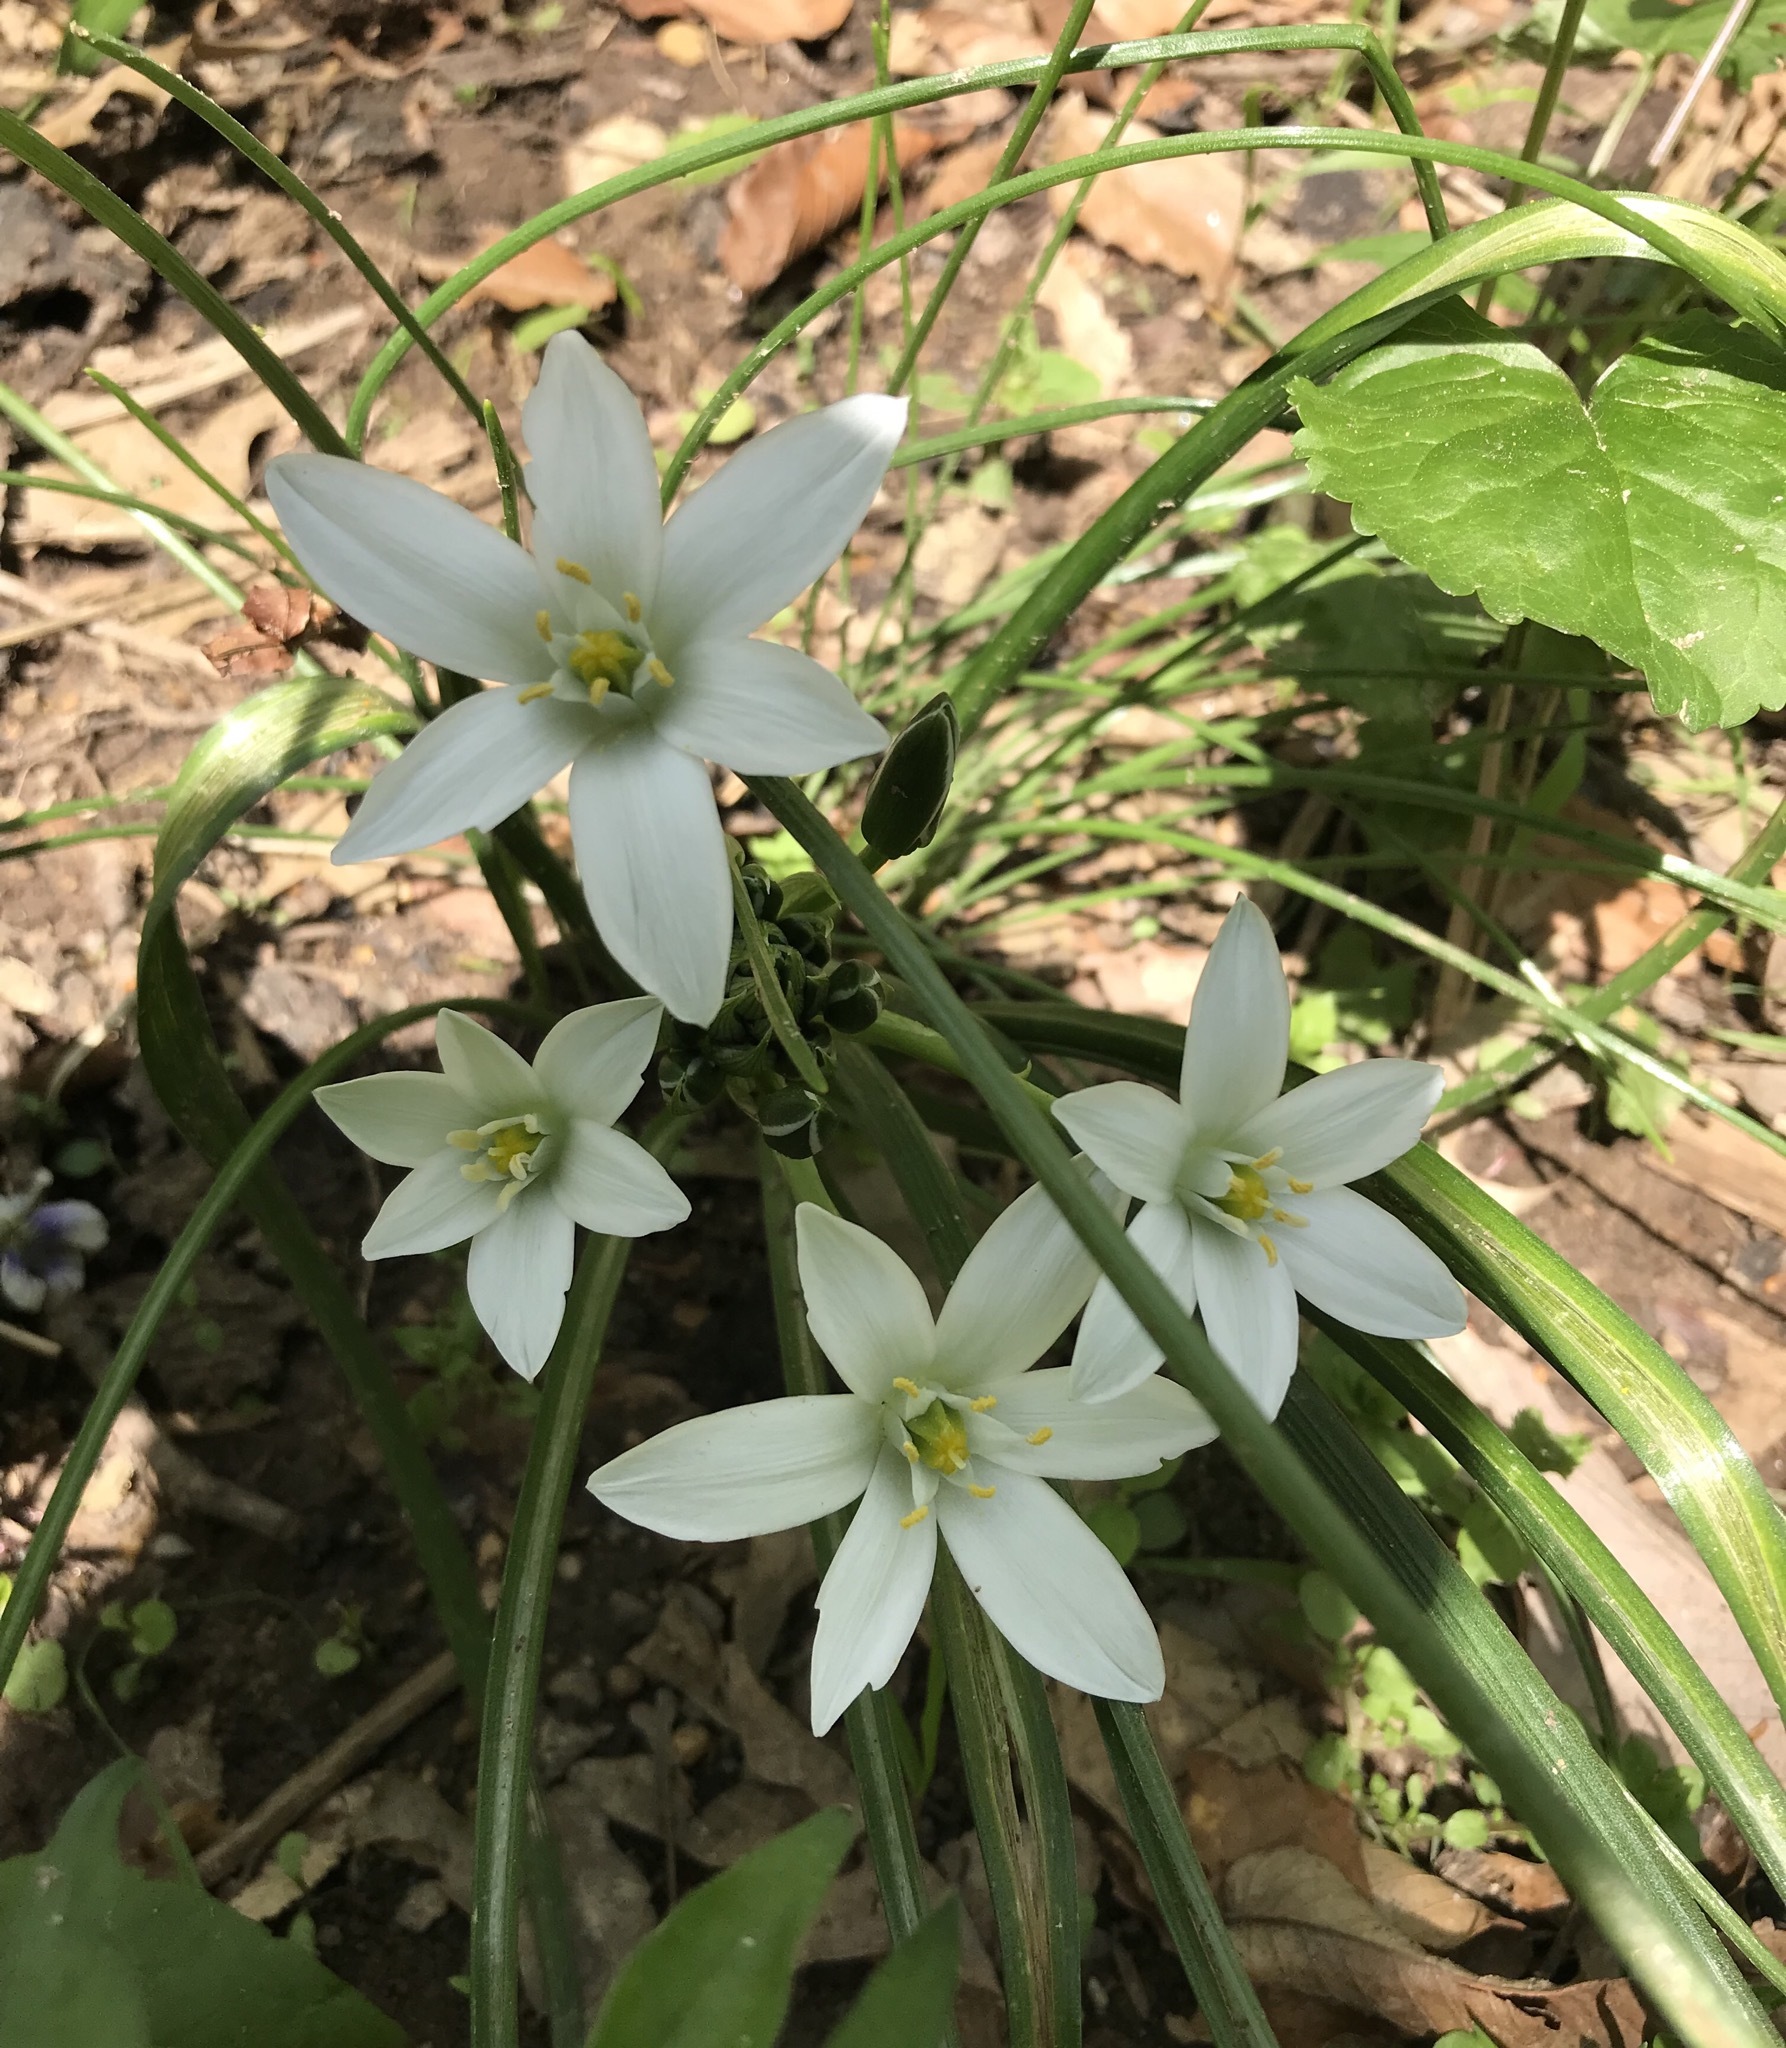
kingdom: Plantae
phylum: Tracheophyta
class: Liliopsida
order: Asparagales
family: Asparagaceae
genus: Ornithogalum
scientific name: Ornithogalum umbellatum
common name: Garden star-of-bethlehem
